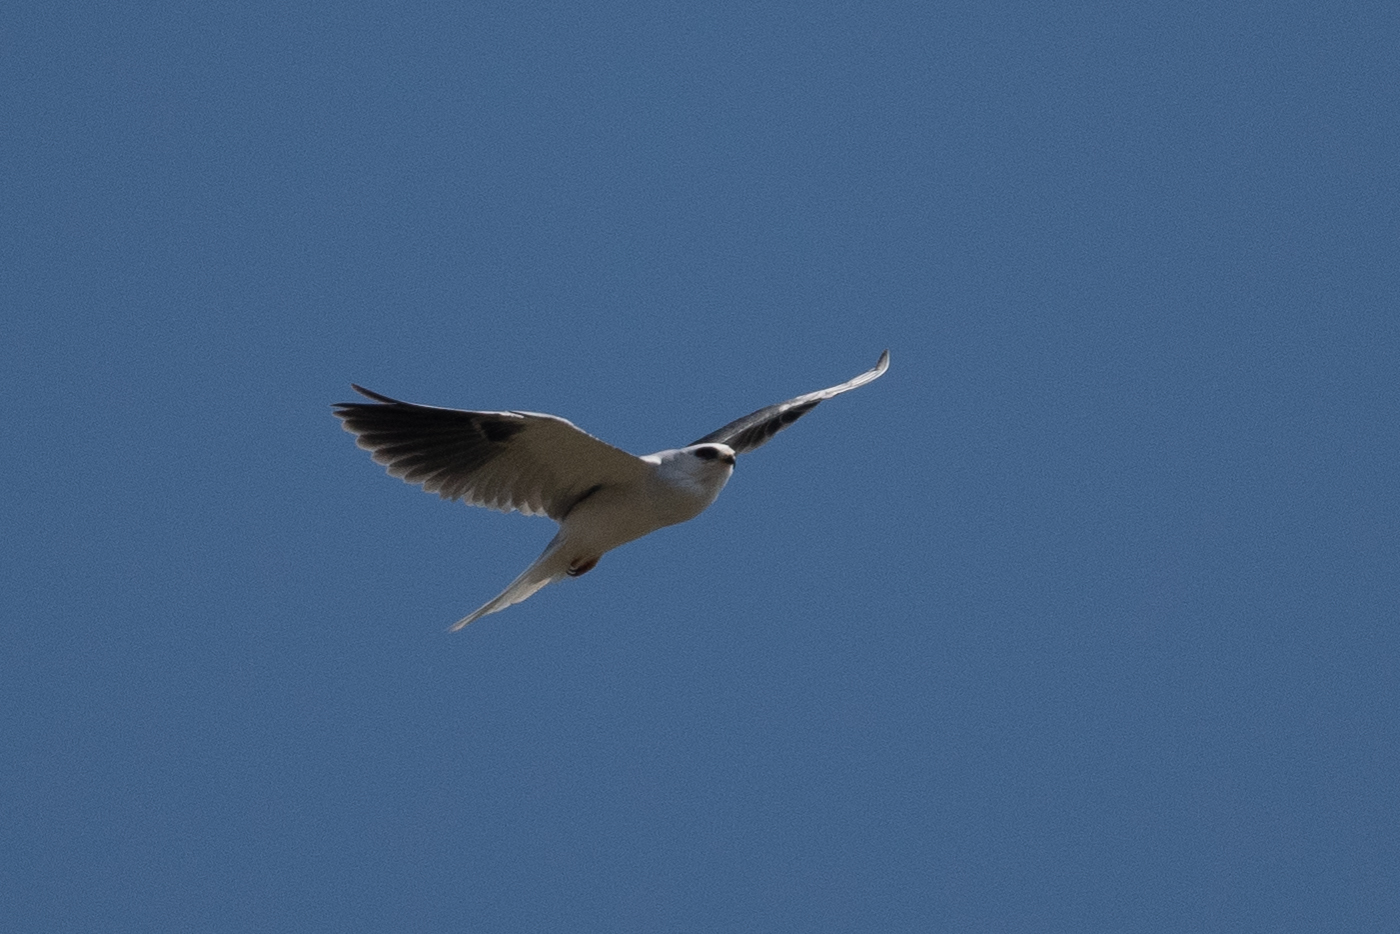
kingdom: Animalia
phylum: Chordata
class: Aves
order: Accipitriformes
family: Accipitridae
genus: Elanus
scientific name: Elanus leucurus
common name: White-tailed kite
